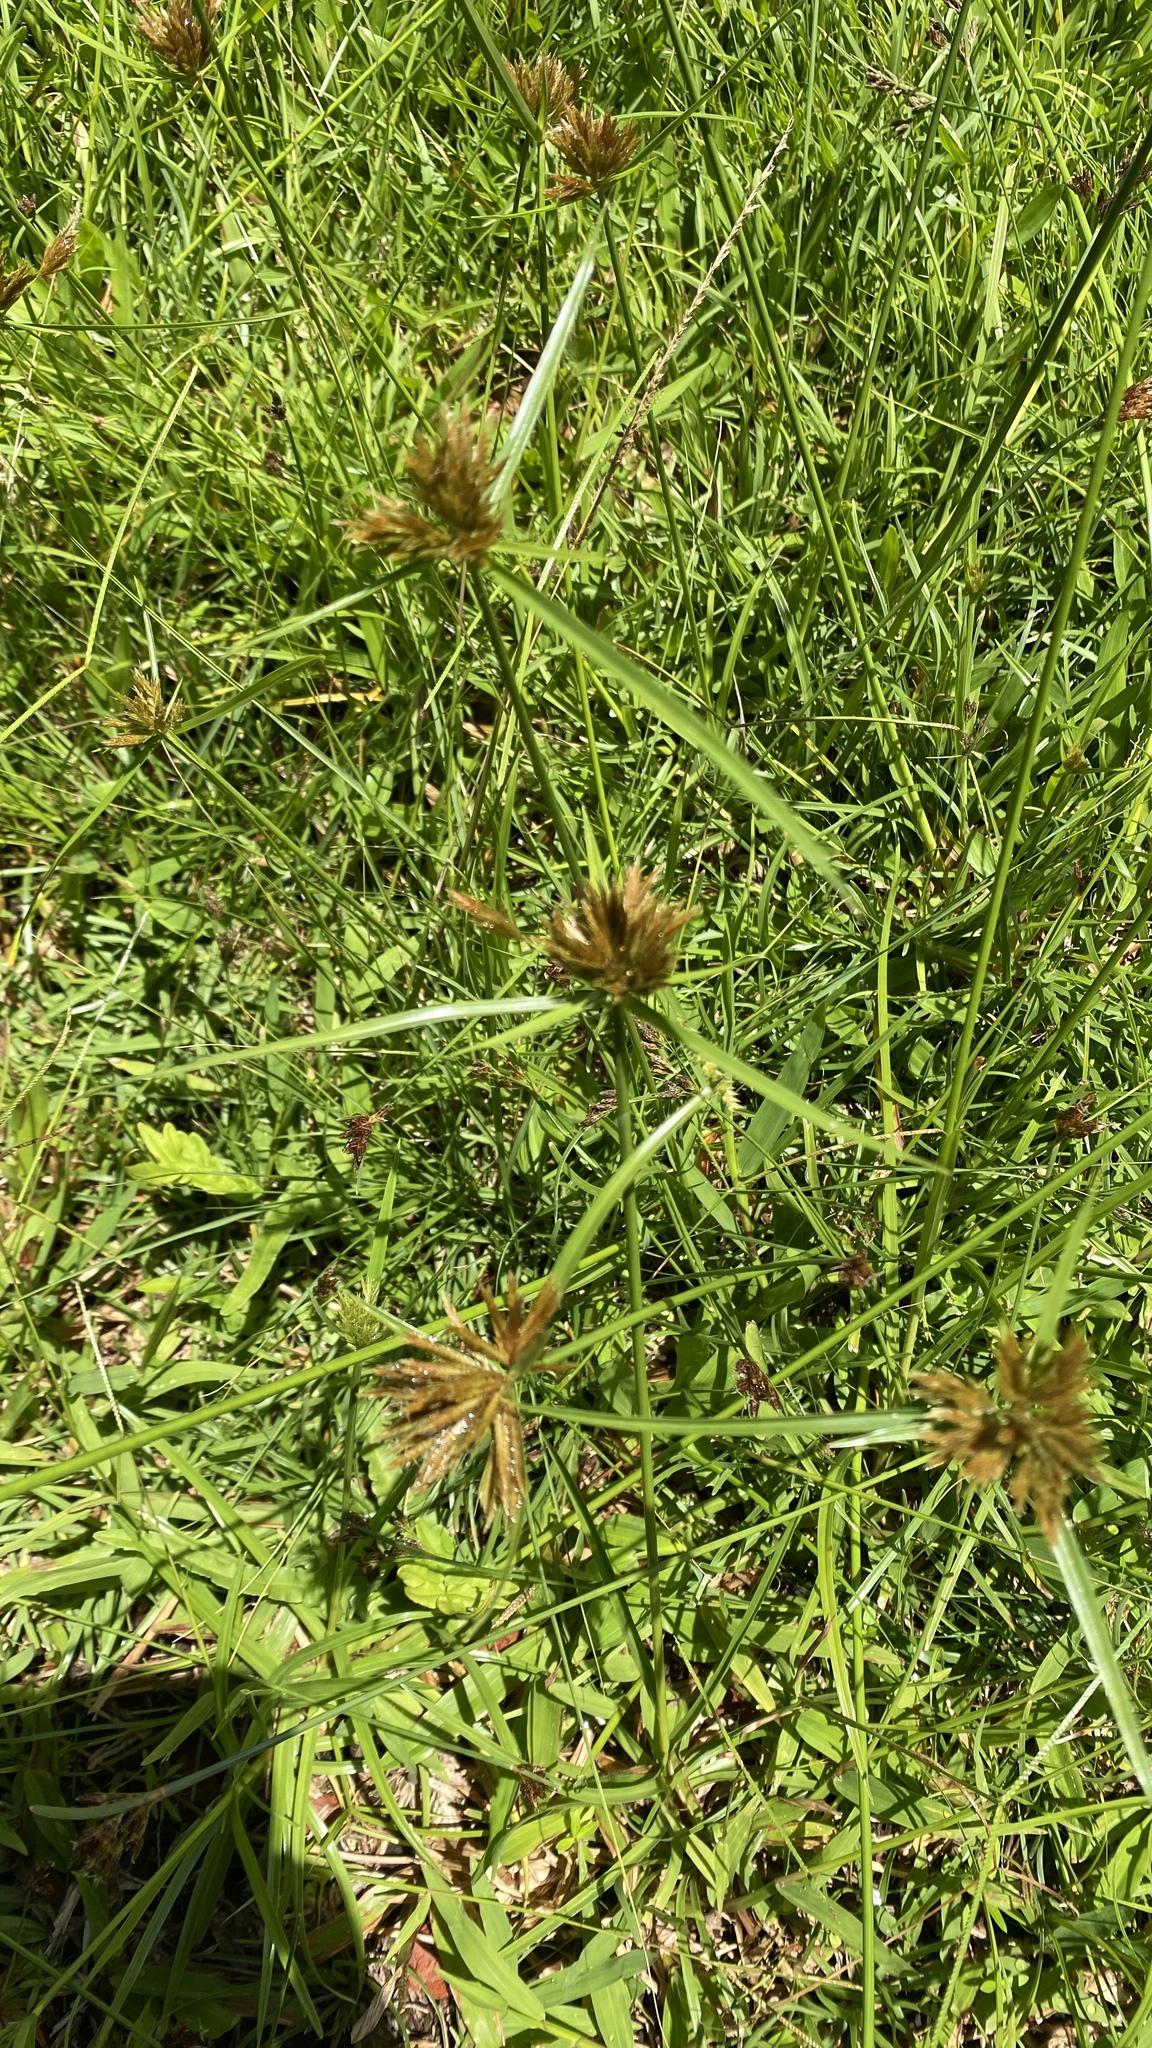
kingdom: Plantae
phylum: Tracheophyta
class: Liliopsida
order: Poales
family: Cyperaceae
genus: Cyperus
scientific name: Cyperus polystachyos
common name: Bunchy flat sedge
